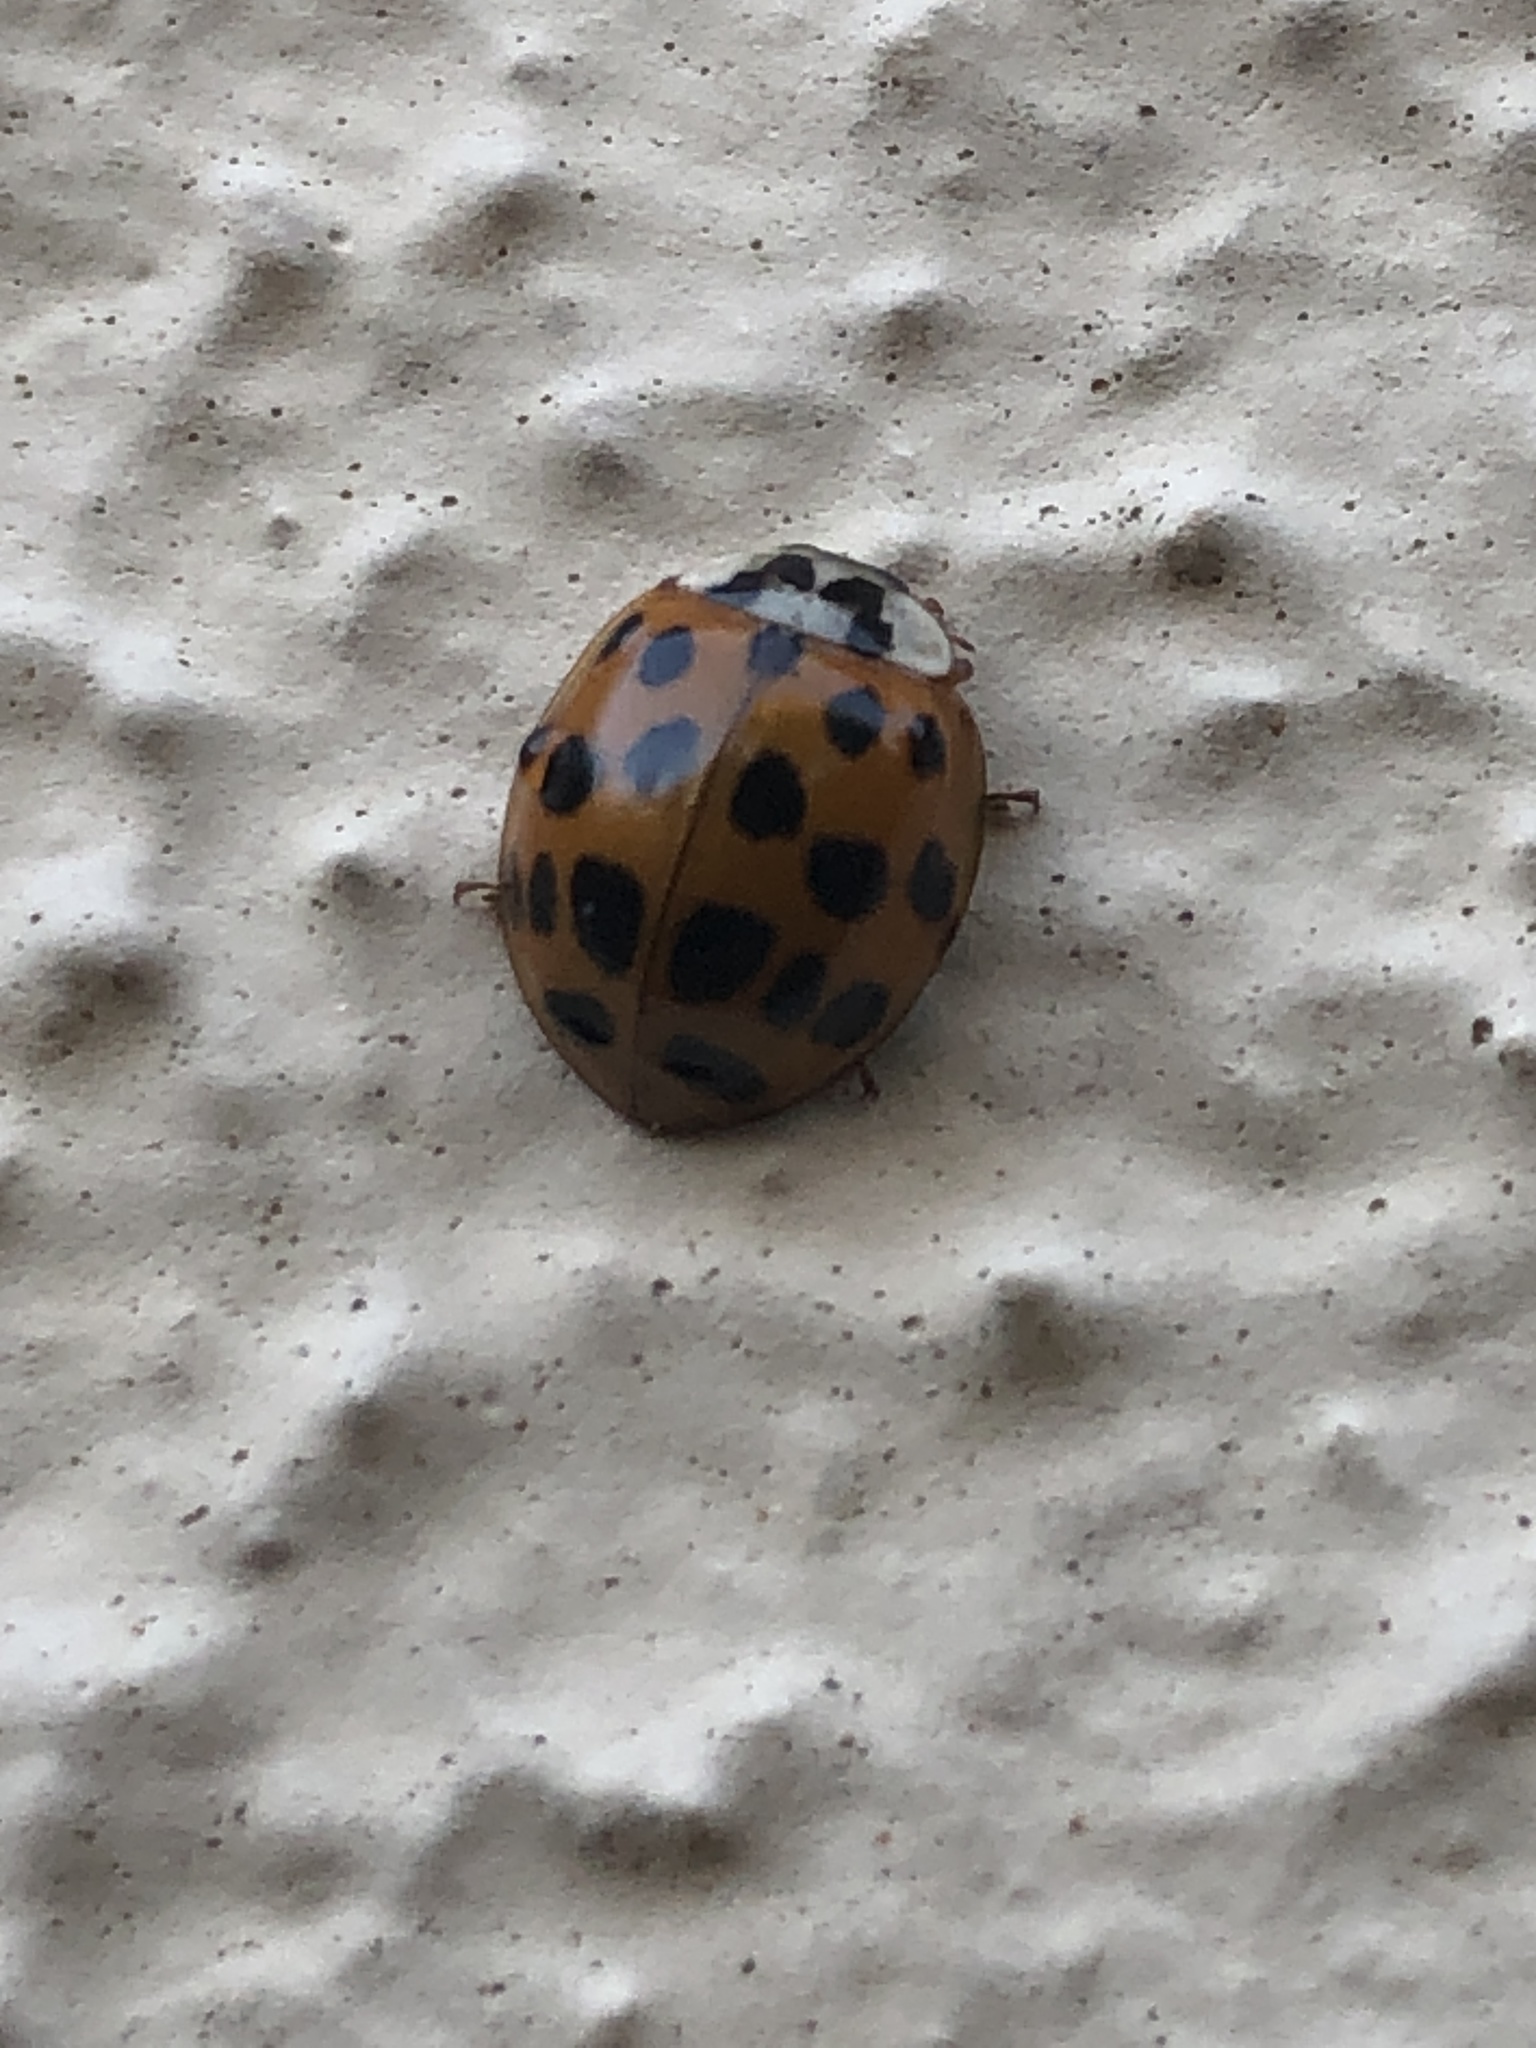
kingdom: Animalia
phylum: Arthropoda
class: Insecta
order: Coleoptera
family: Coccinellidae
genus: Harmonia
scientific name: Harmonia axyridis
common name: Harlequin ladybird
